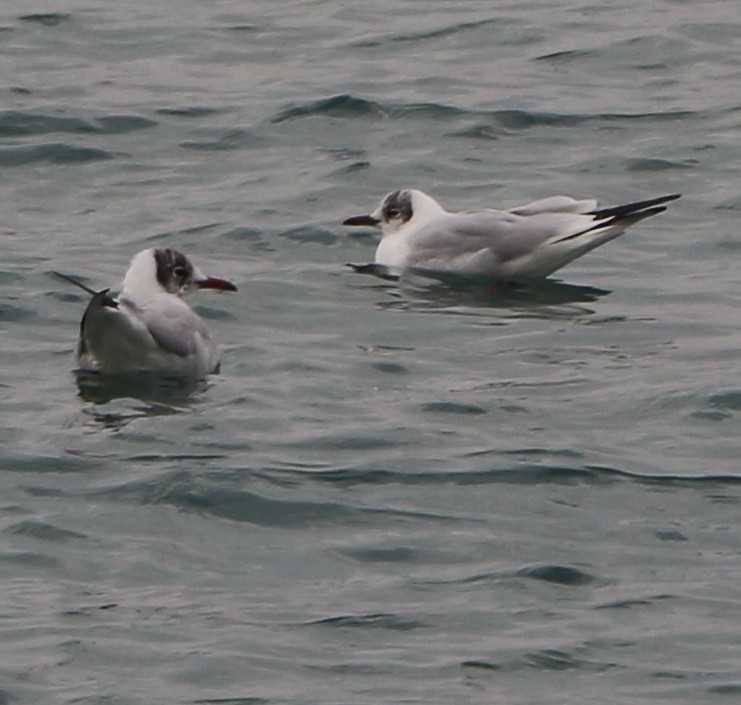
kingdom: Animalia
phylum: Chordata
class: Aves
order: Charadriiformes
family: Laridae
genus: Chroicocephalus
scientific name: Chroicocephalus ridibundus
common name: Black-headed gull
